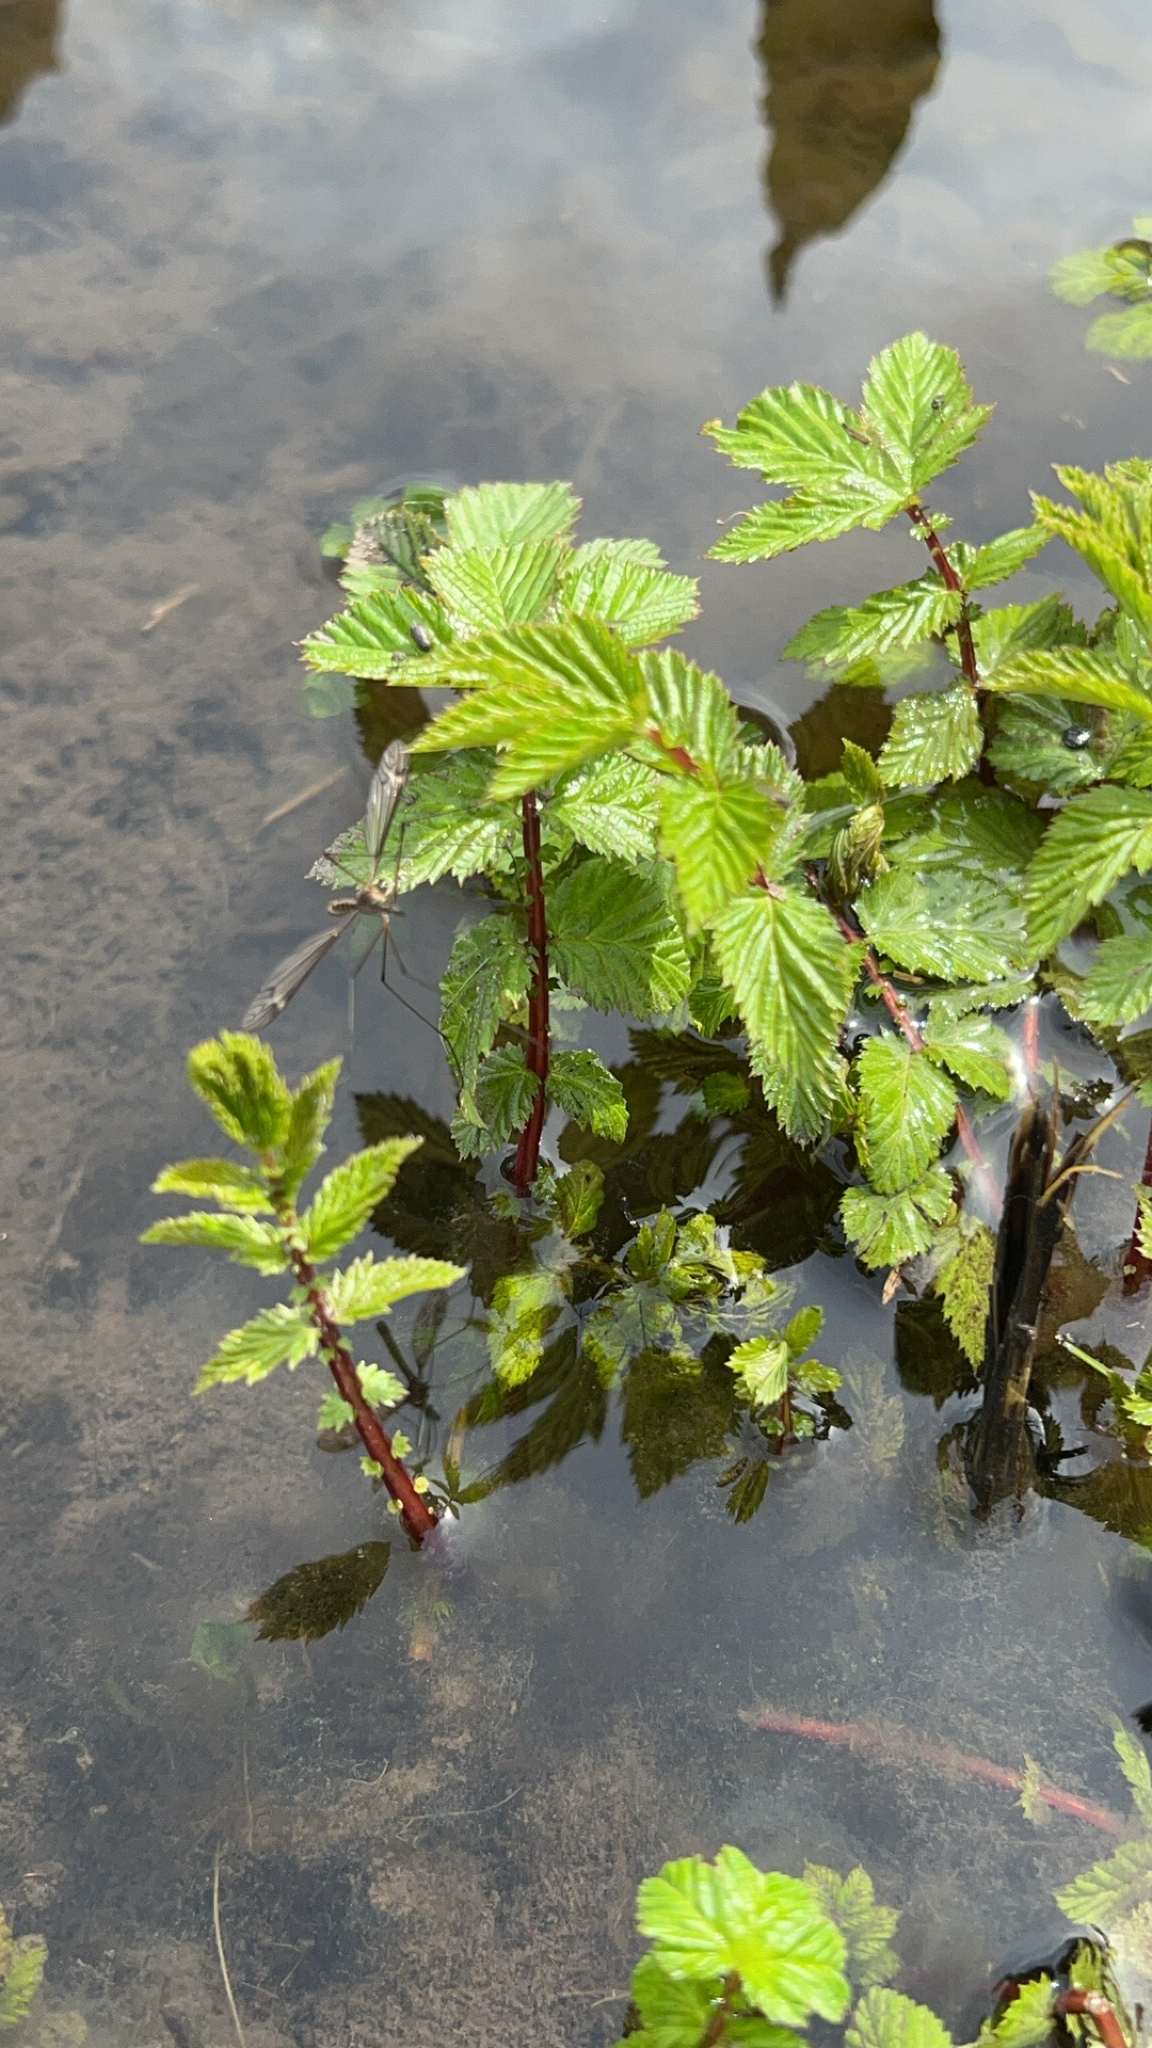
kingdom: Plantae
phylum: Tracheophyta
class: Magnoliopsida
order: Rosales
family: Rosaceae
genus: Filipendula
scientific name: Filipendula ulmaria
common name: Meadowsweet
